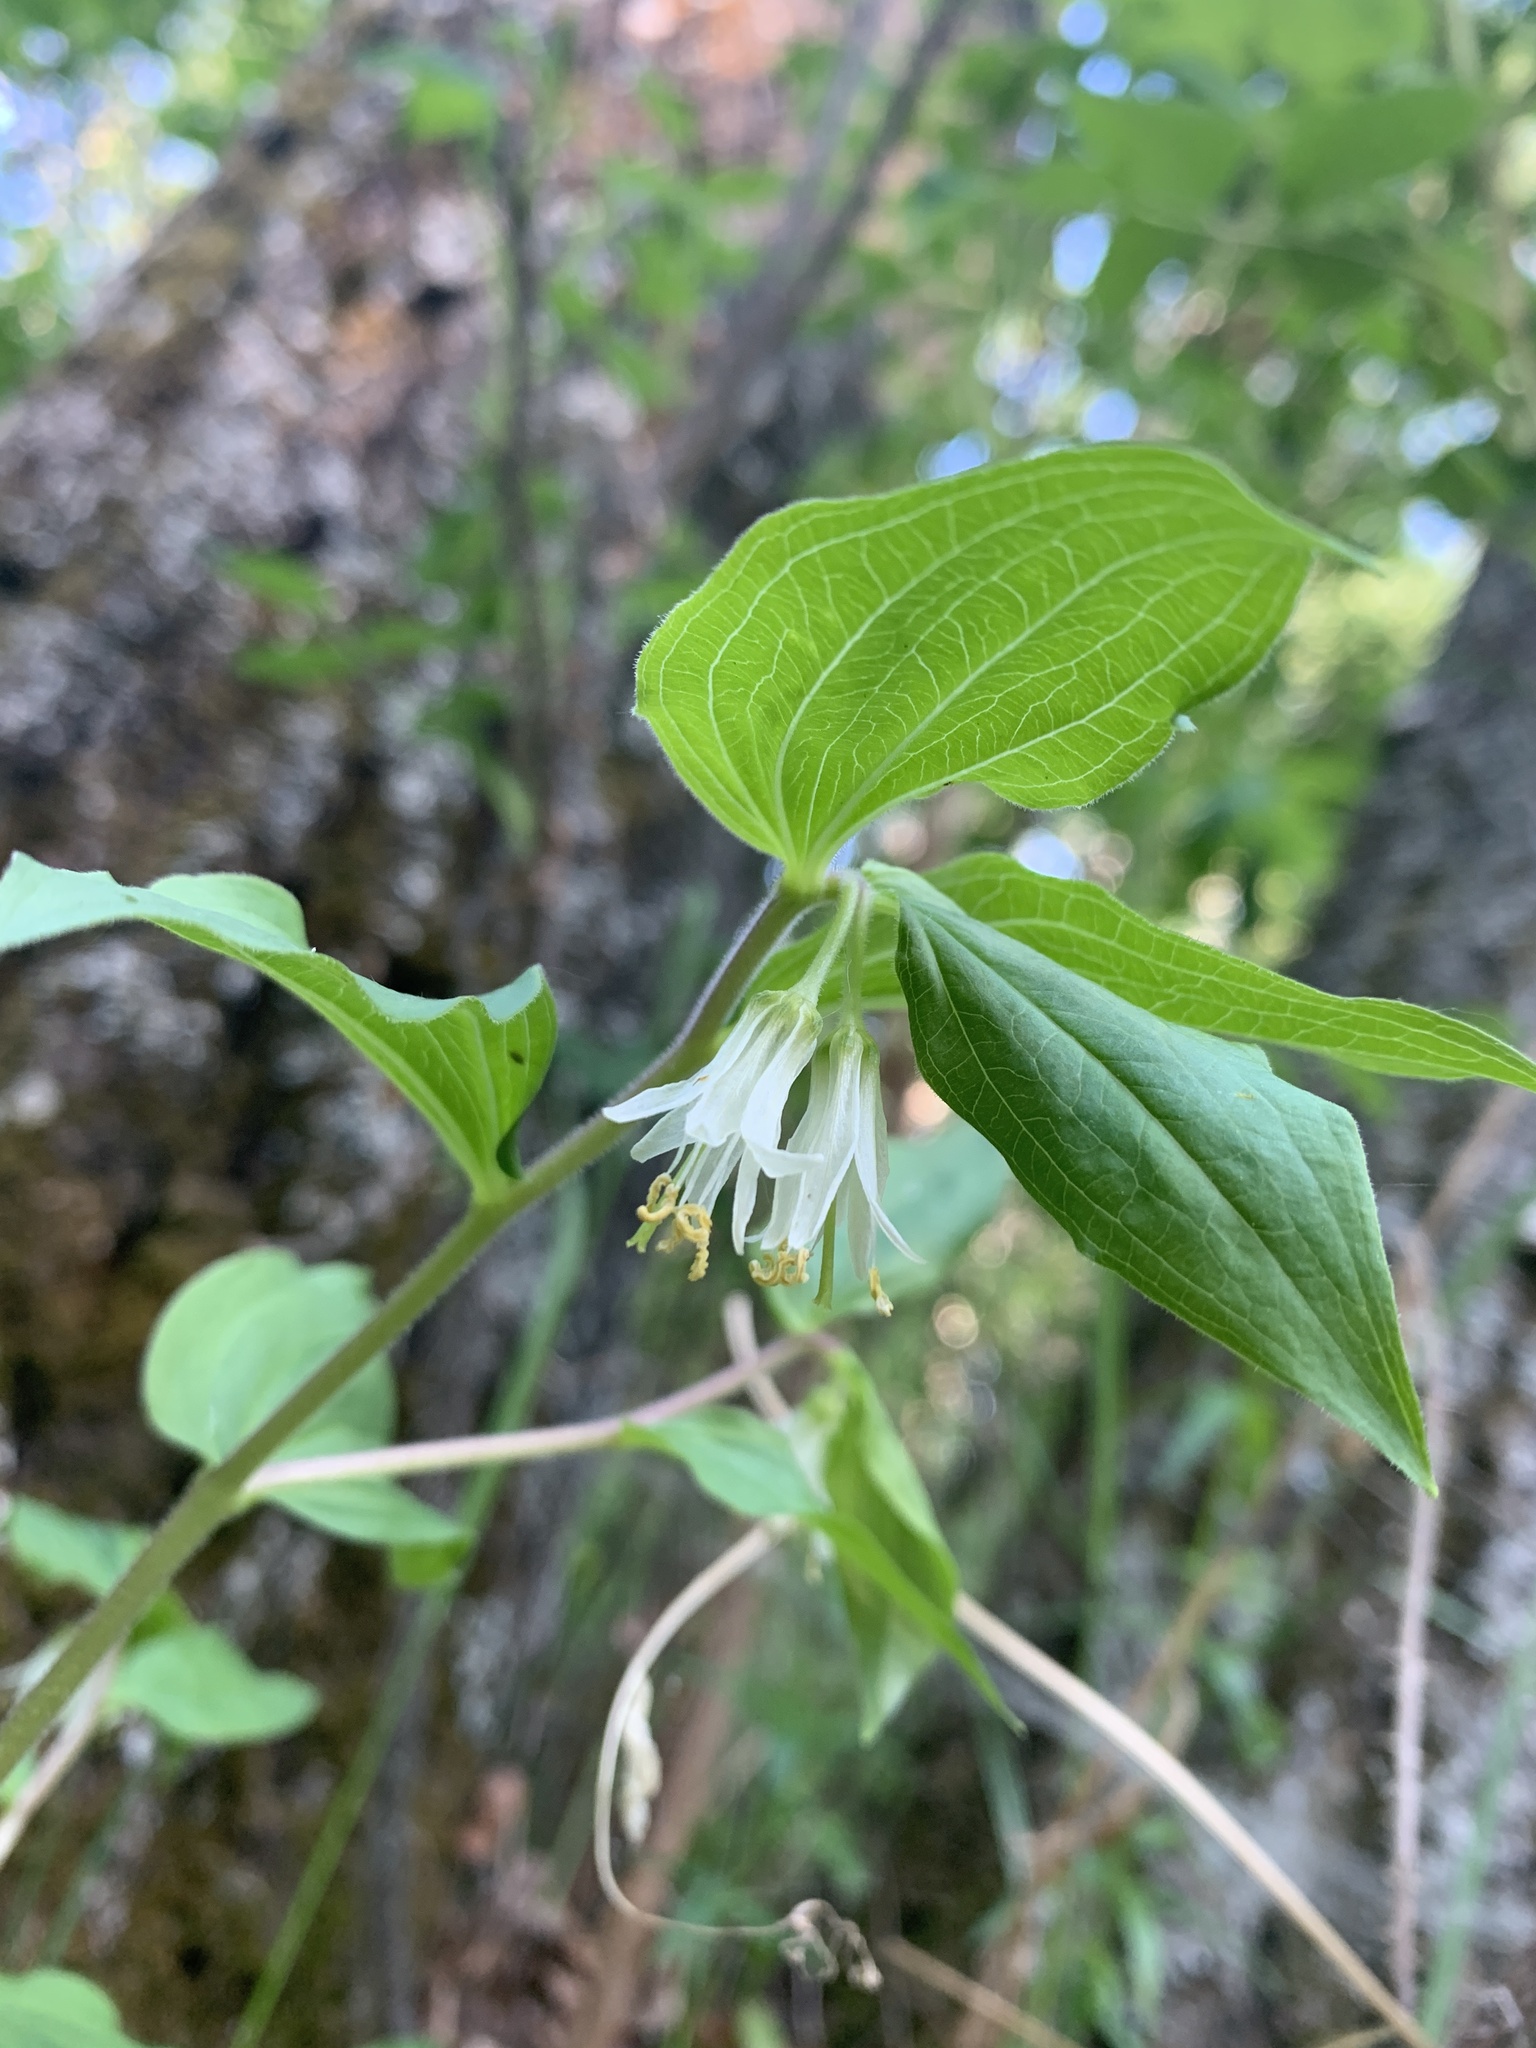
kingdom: Plantae
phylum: Tracheophyta
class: Liliopsida
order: Liliales
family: Liliaceae
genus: Prosartes
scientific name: Prosartes trachycarpa
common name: Rough-fruit fairy-bells
